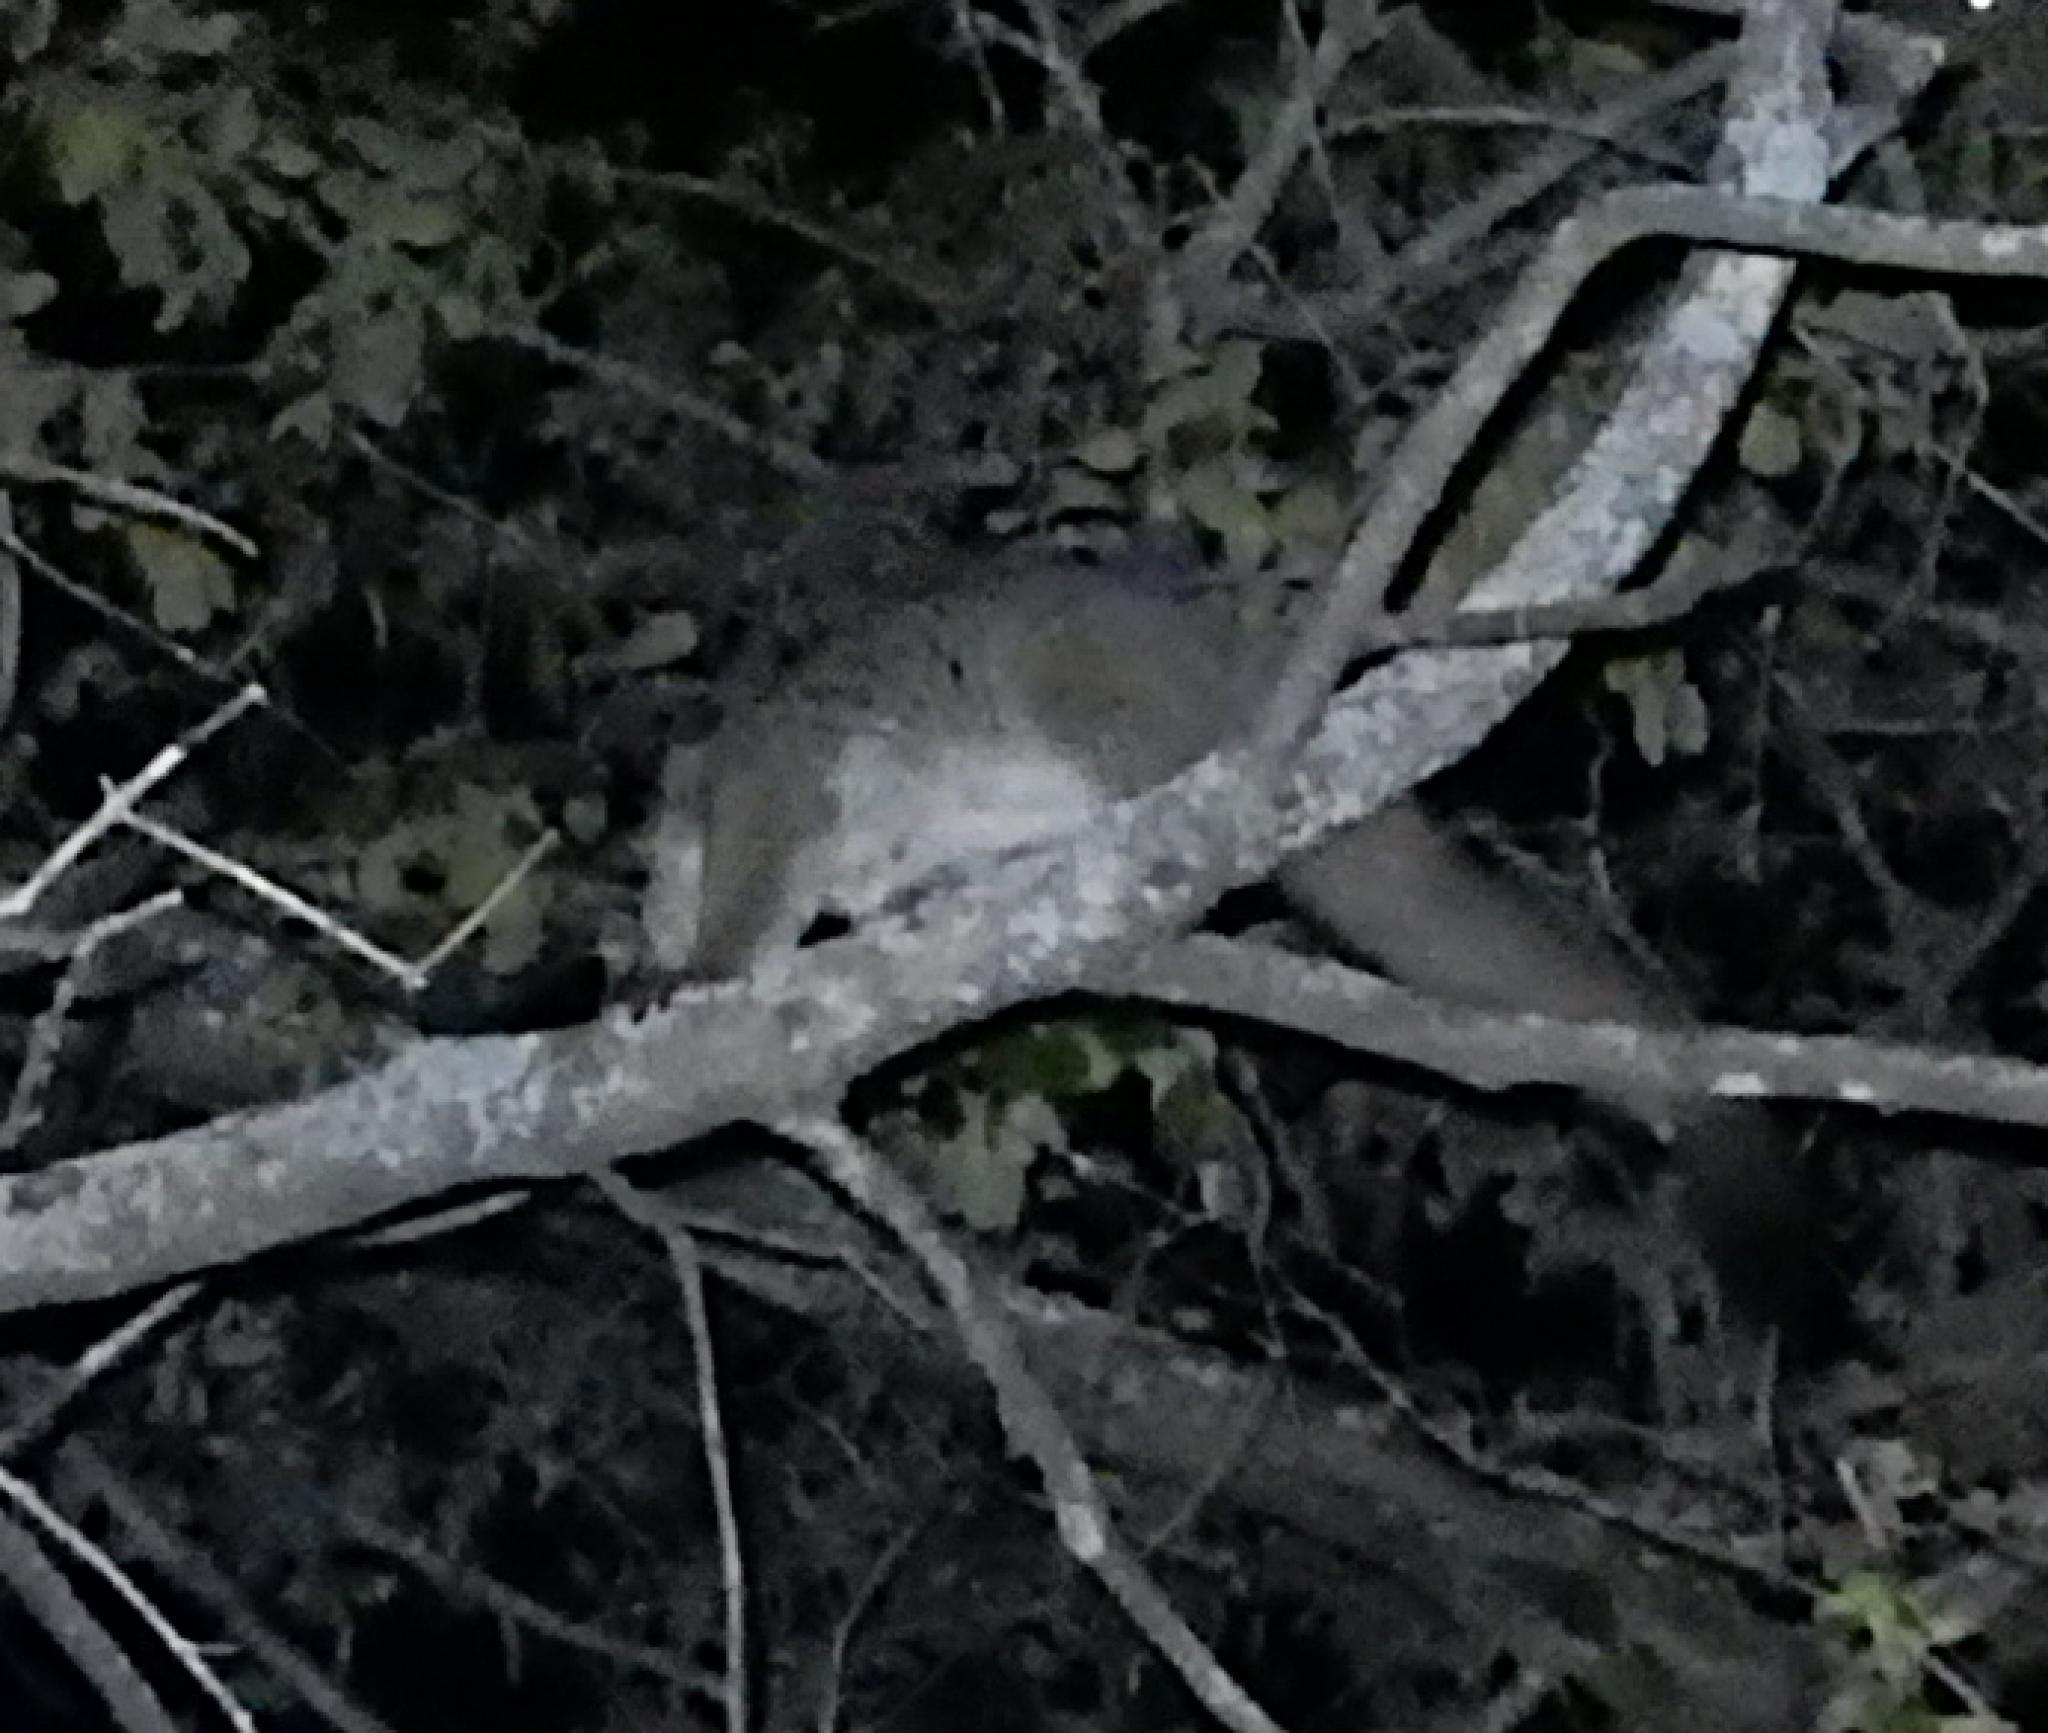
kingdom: Animalia
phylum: Chordata
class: Mammalia
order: Primates
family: Galagidae
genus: Otolemur
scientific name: Otolemur crassicaudatus
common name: Brown greater galago
